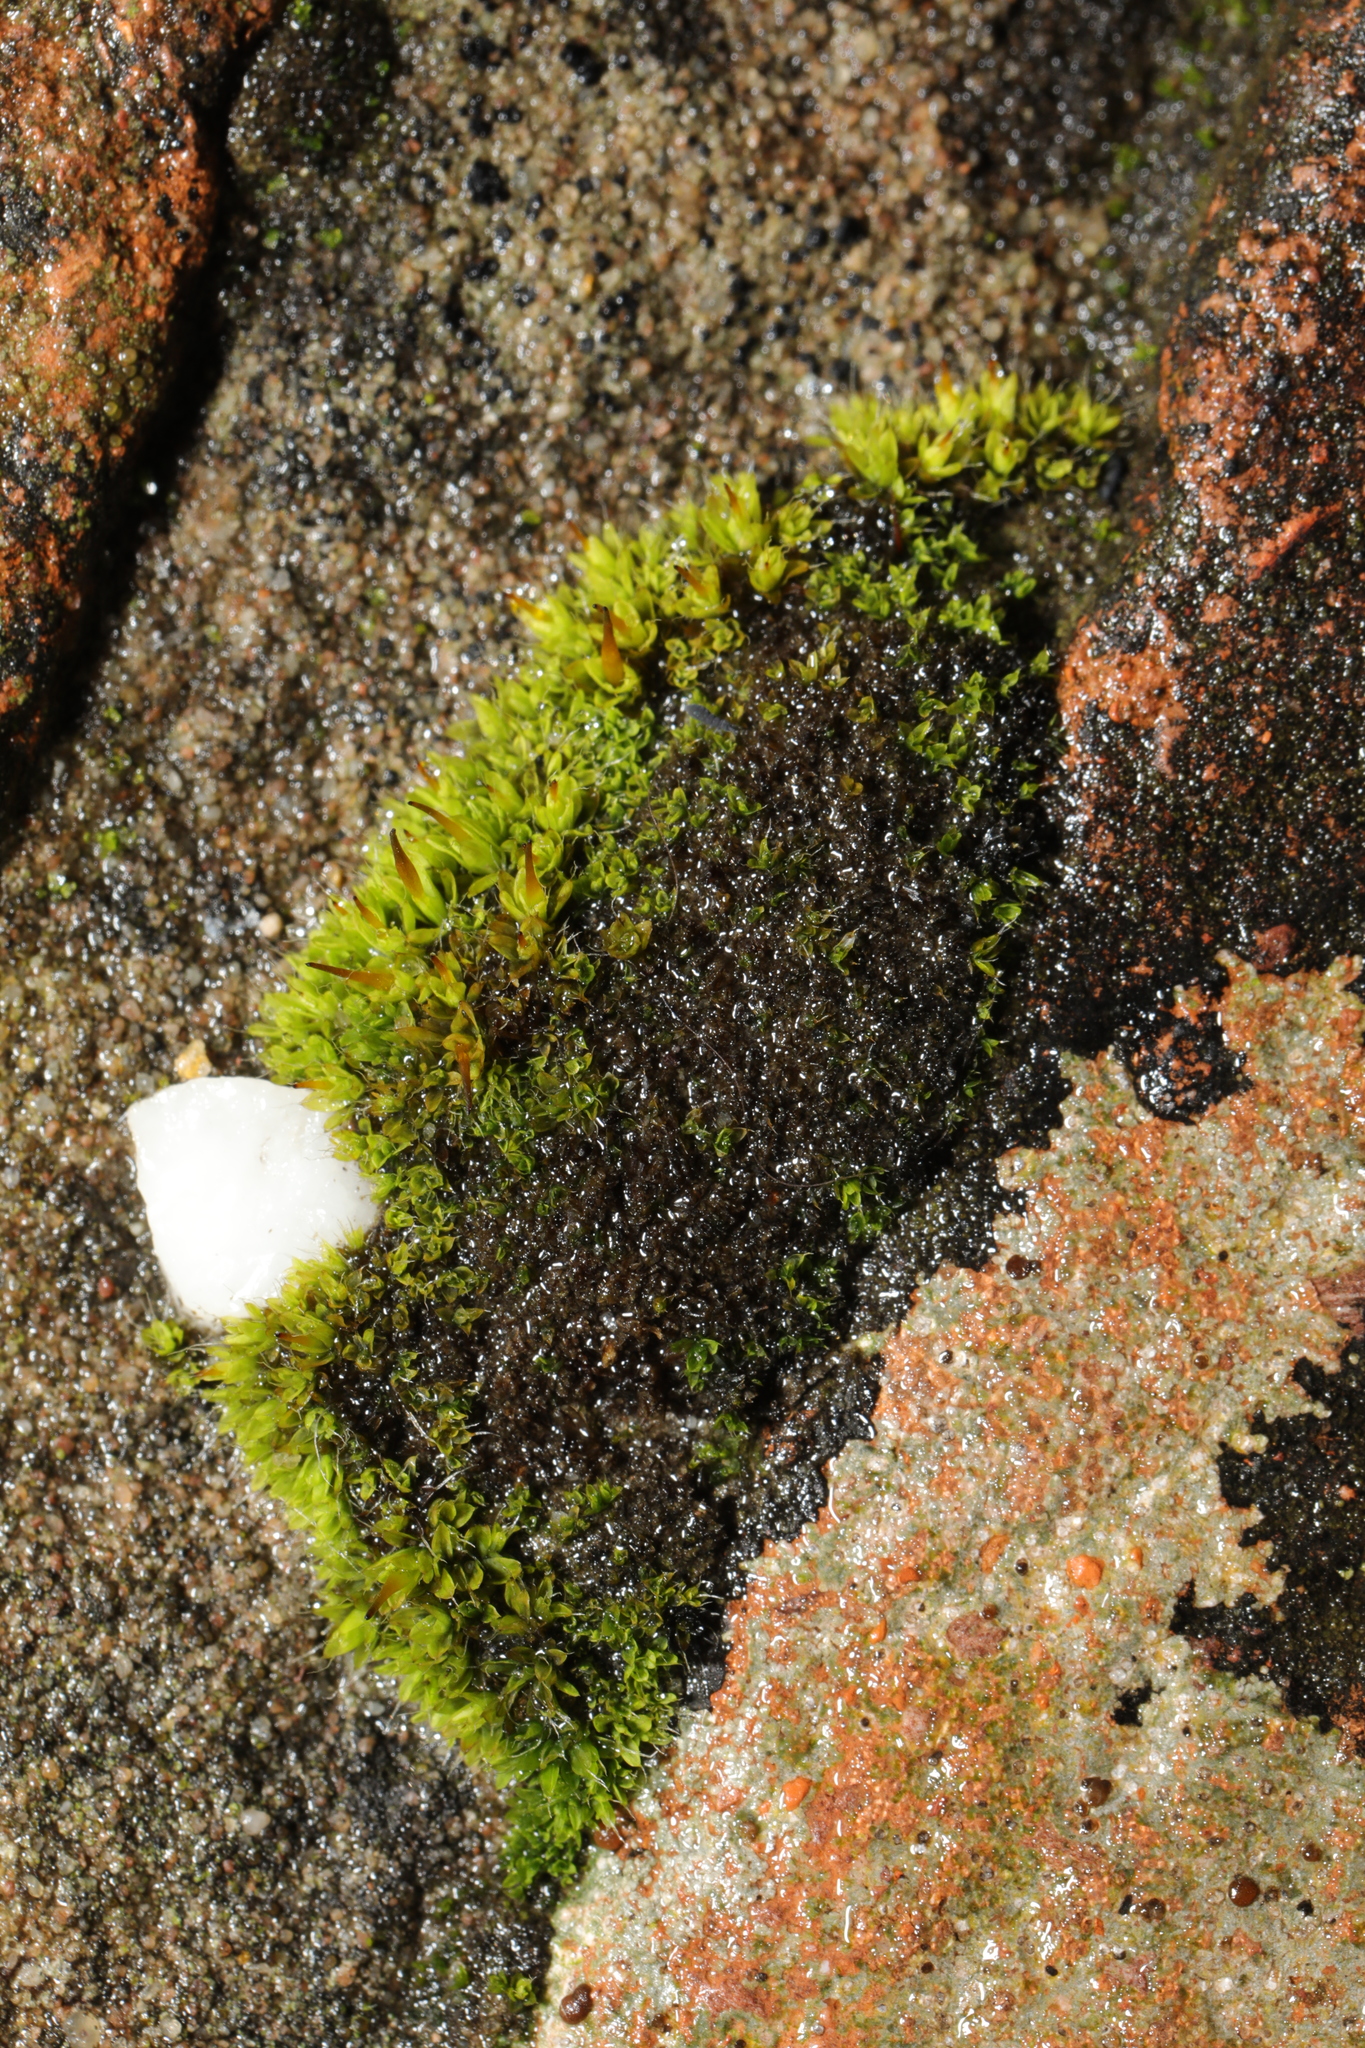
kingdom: Plantae
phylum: Bryophyta
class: Bryopsida
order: Pottiales
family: Pottiaceae
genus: Tortula
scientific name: Tortula muralis
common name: Wall screw-moss
